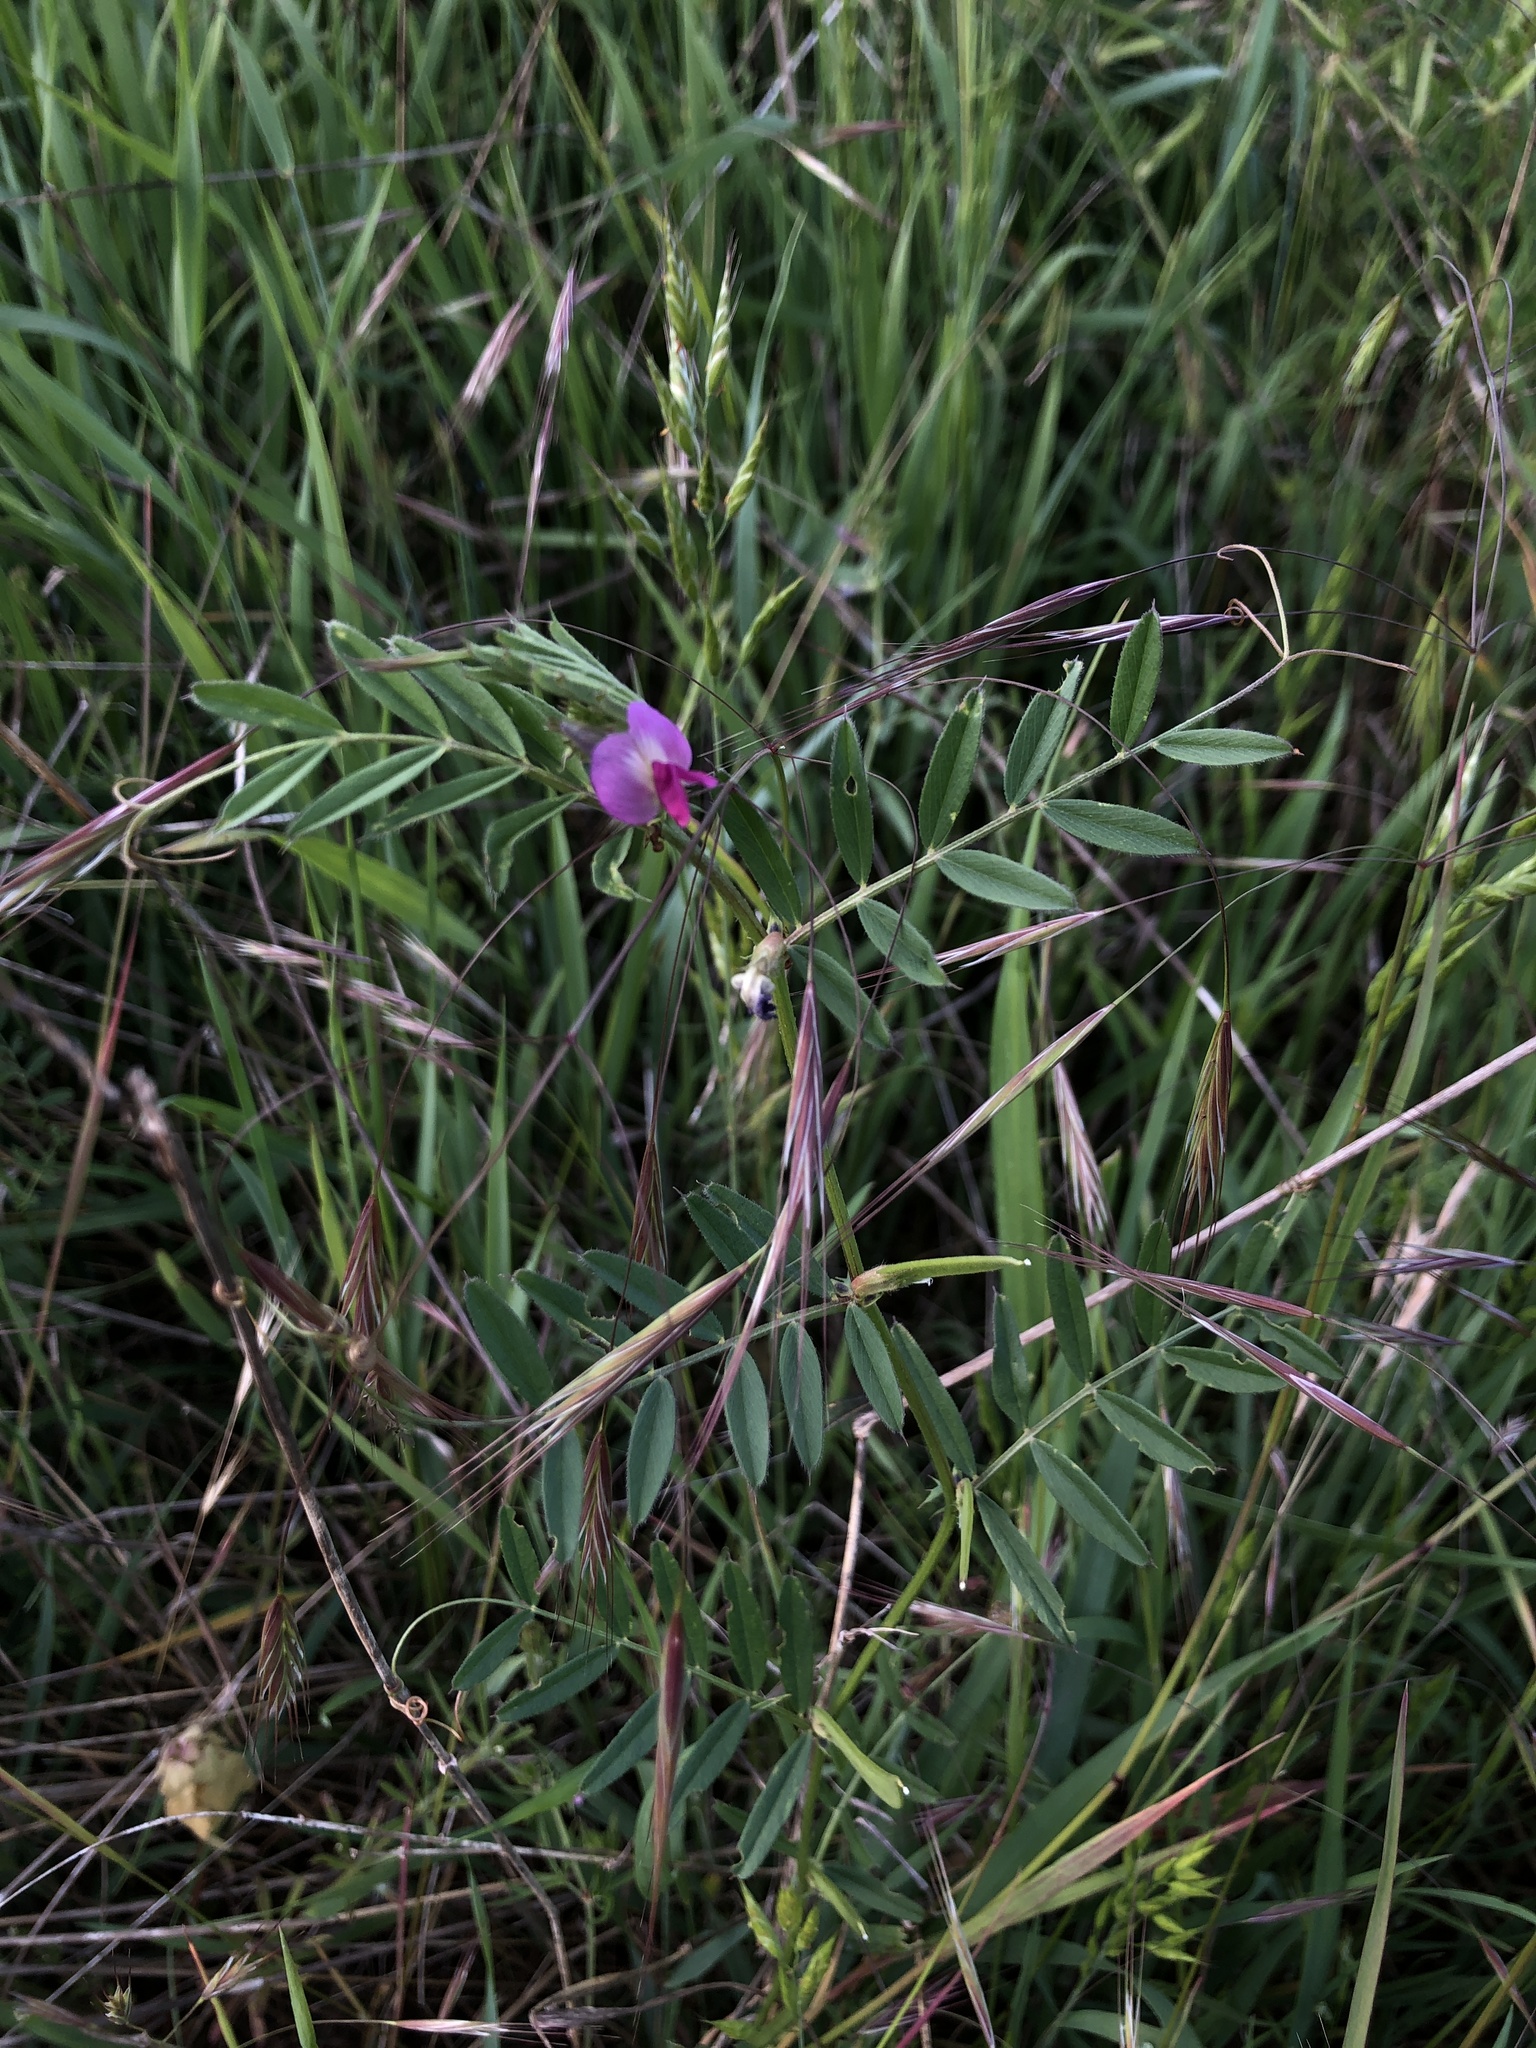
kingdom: Plantae
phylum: Tracheophyta
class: Magnoliopsida
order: Fabales
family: Fabaceae
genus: Vicia
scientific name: Vicia sativa
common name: Garden vetch
